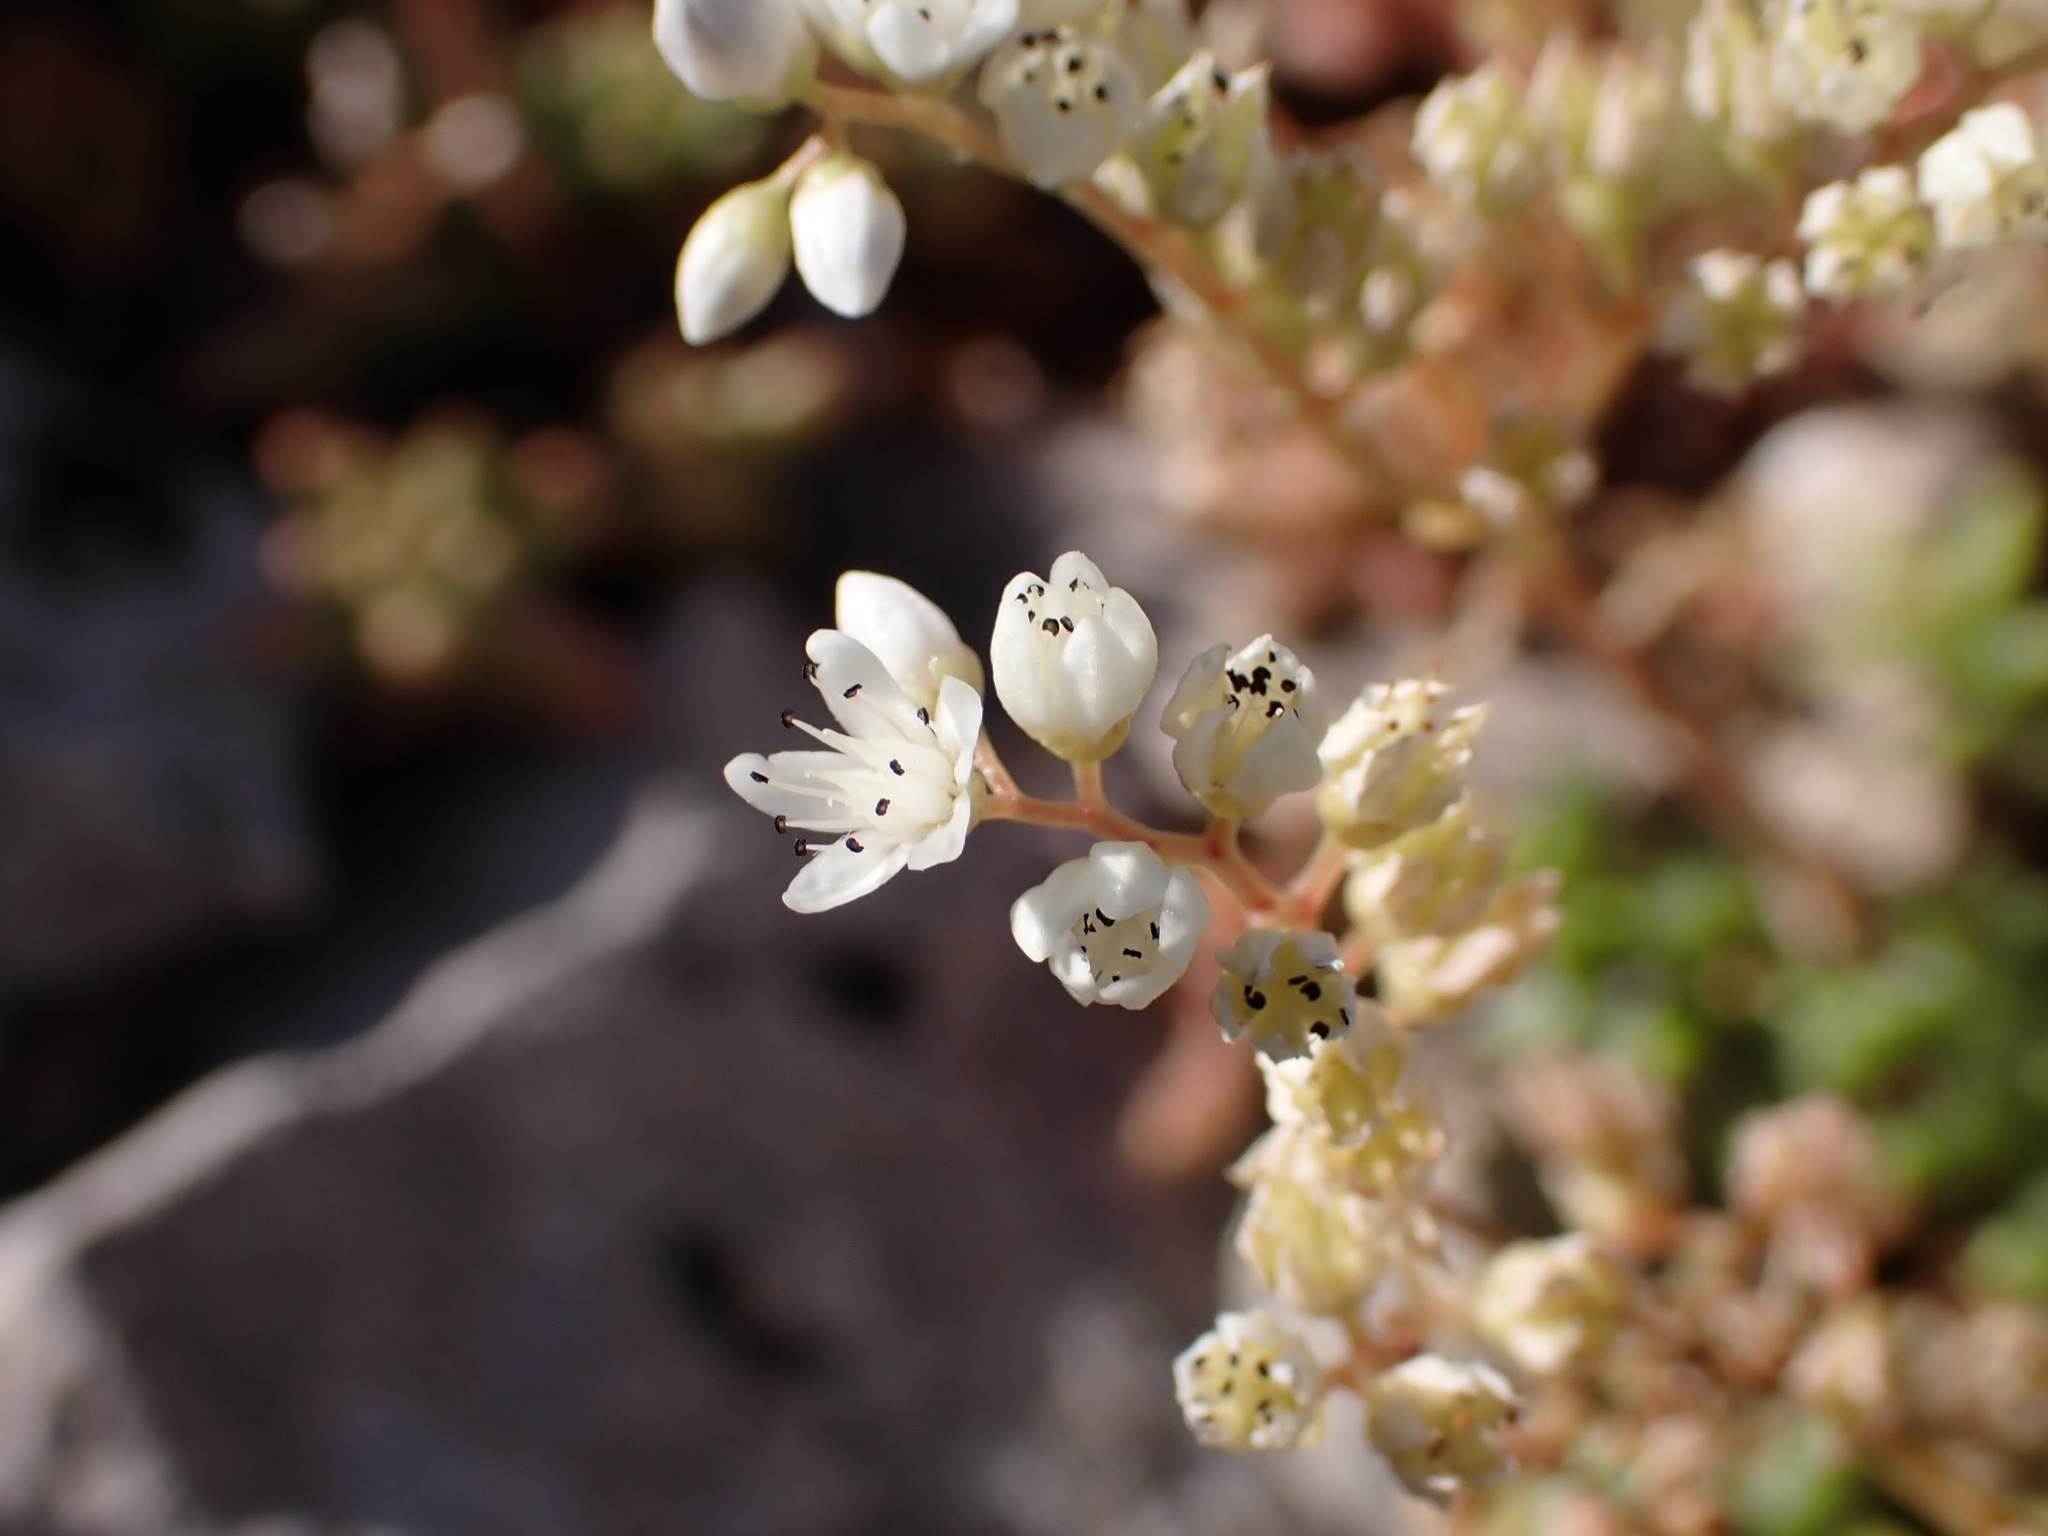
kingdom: Plantae
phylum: Tracheophyta
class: Magnoliopsida
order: Saxifragales
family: Crassulaceae
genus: Sedum
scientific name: Sedum album
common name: White stonecrop
